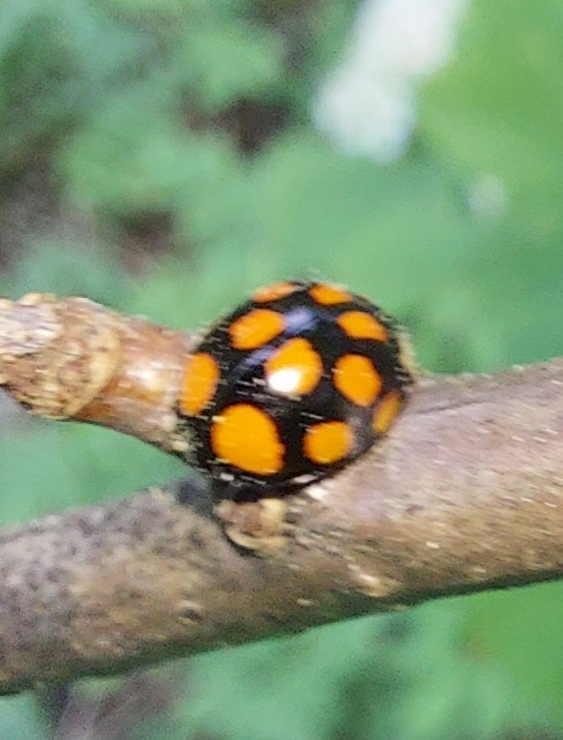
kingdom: Animalia
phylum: Arthropoda
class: Insecta
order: Coleoptera
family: Coccinellidae
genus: Harmonia
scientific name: Harmonia axyridis
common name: Harlequin ladybird
